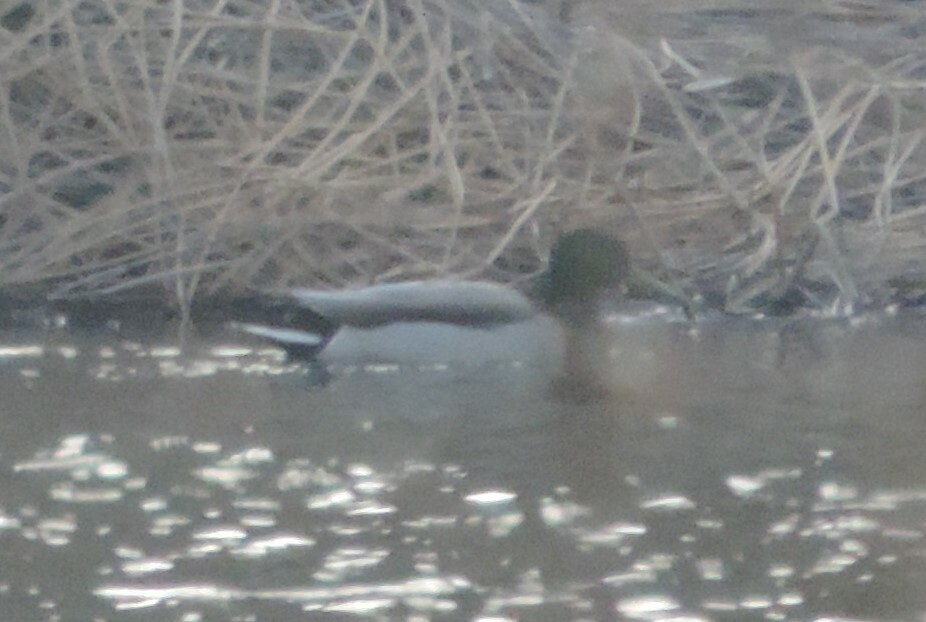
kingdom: Animalia
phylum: Chordata
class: Aves
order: Anseriformes
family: Anatidae
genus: Anas
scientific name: Anas platyrhynchos
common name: Mallard
